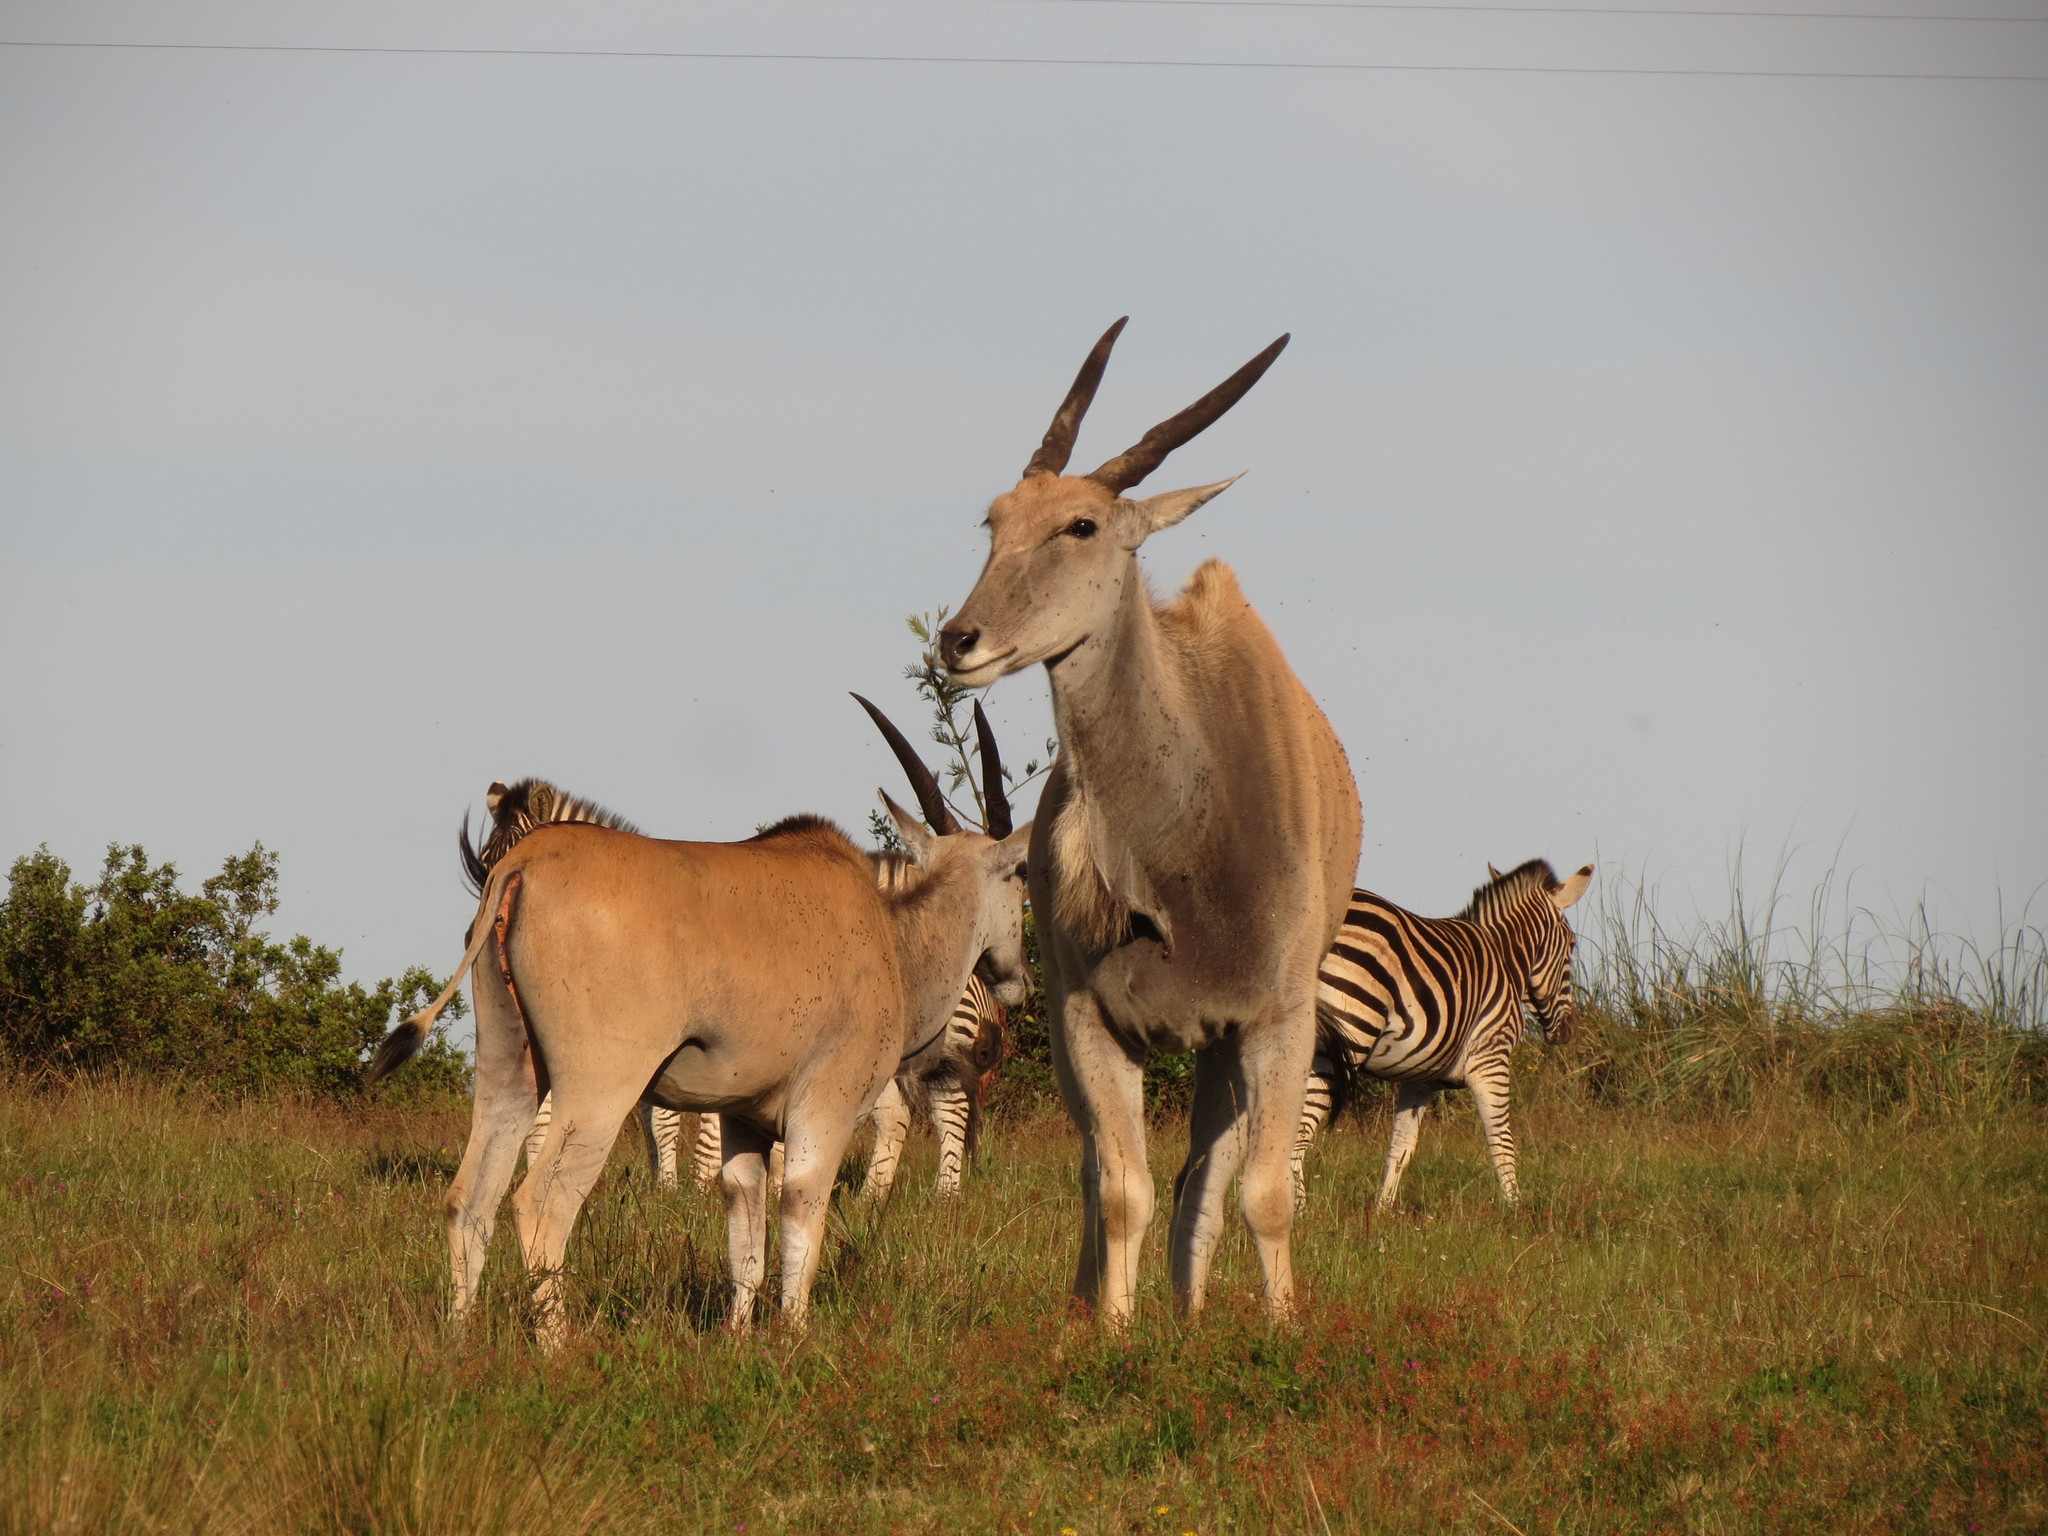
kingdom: Animalia
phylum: Chordata
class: Mammalia
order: Artiodactyla
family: Bovidae
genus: Taurotragus
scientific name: Taurotragus oryx
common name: Common eland
